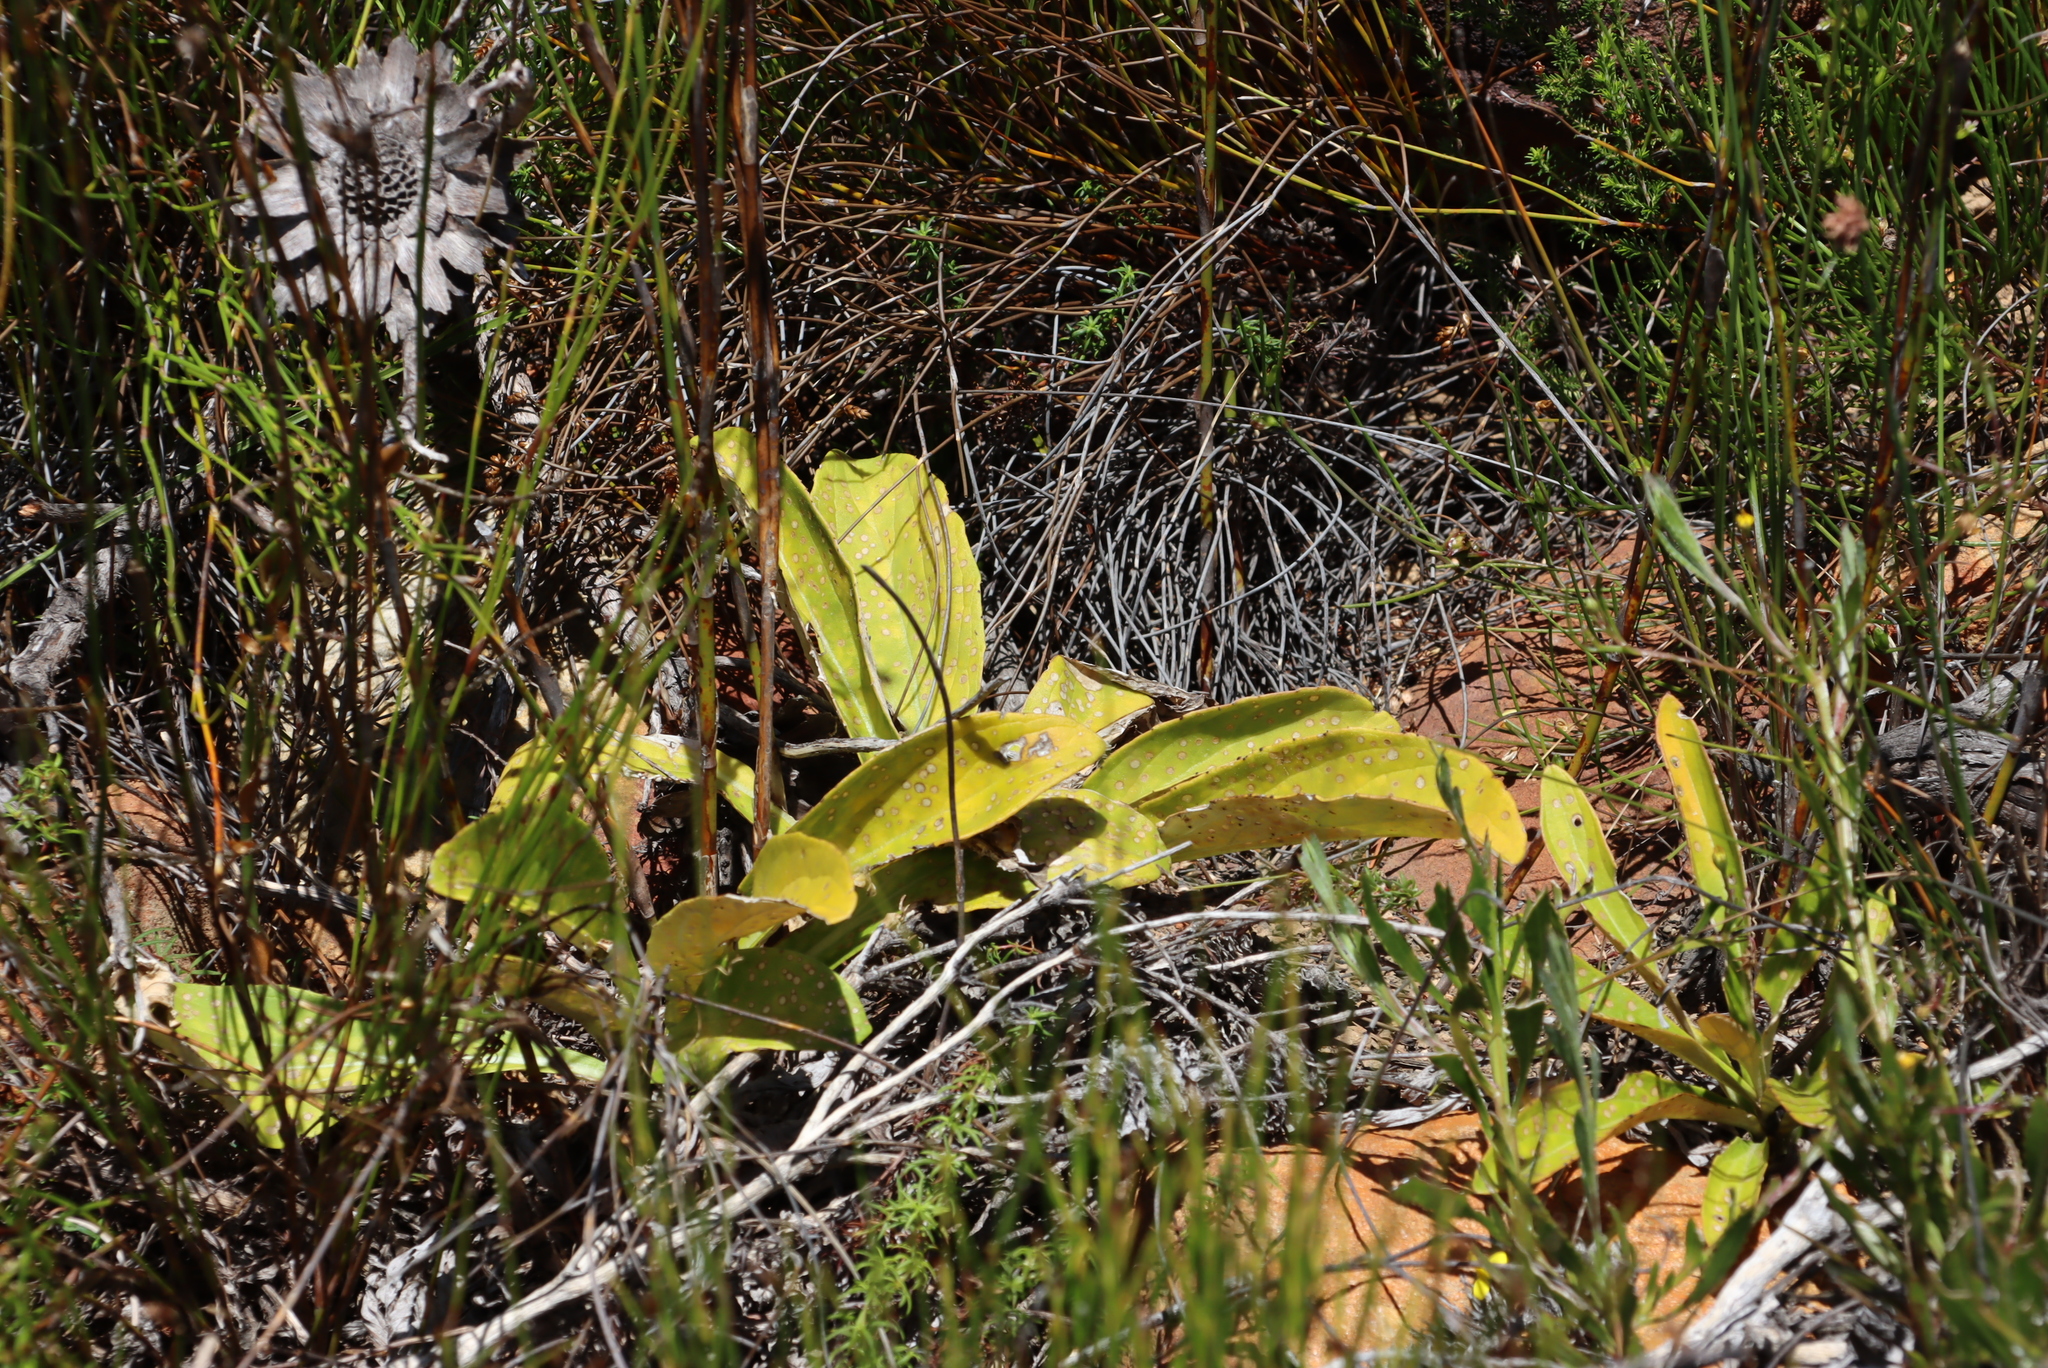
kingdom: Plantae
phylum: Tracheophyta
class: Magnoliopsida
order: Asterales
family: Asteraceae
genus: Berkheya
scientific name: Berkheya herbacea
